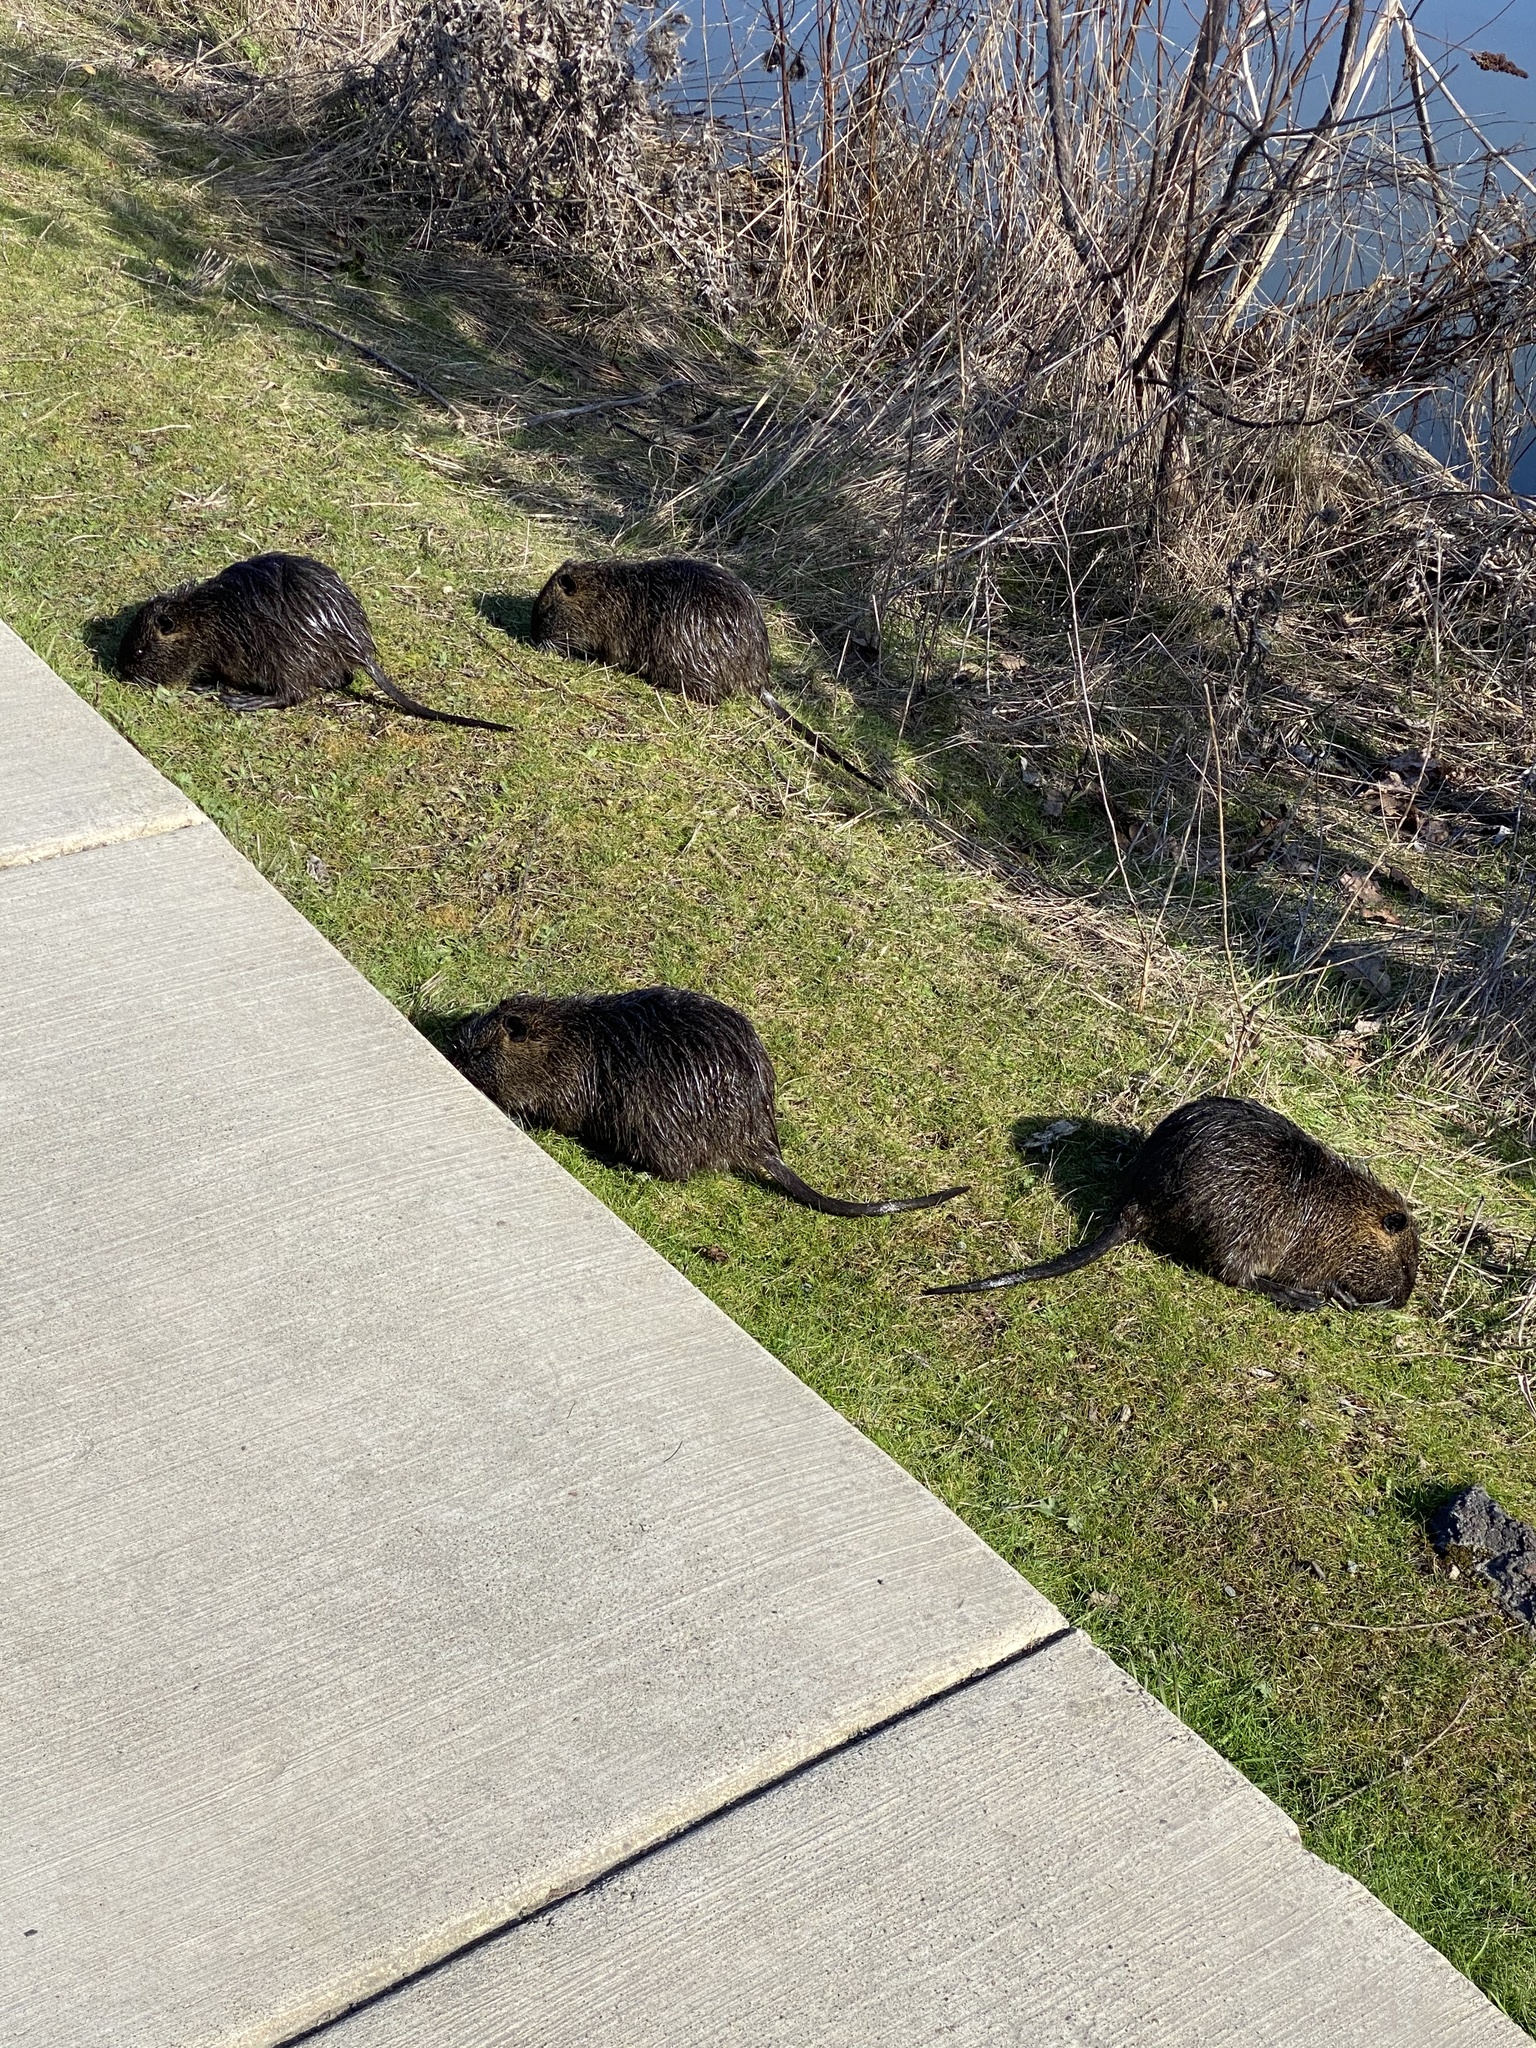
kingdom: Animalia
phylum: Chordata
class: Mammalia
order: Rodentia
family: Myocastoridae
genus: Myocastor
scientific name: Myocastor coypus
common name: Coypu
